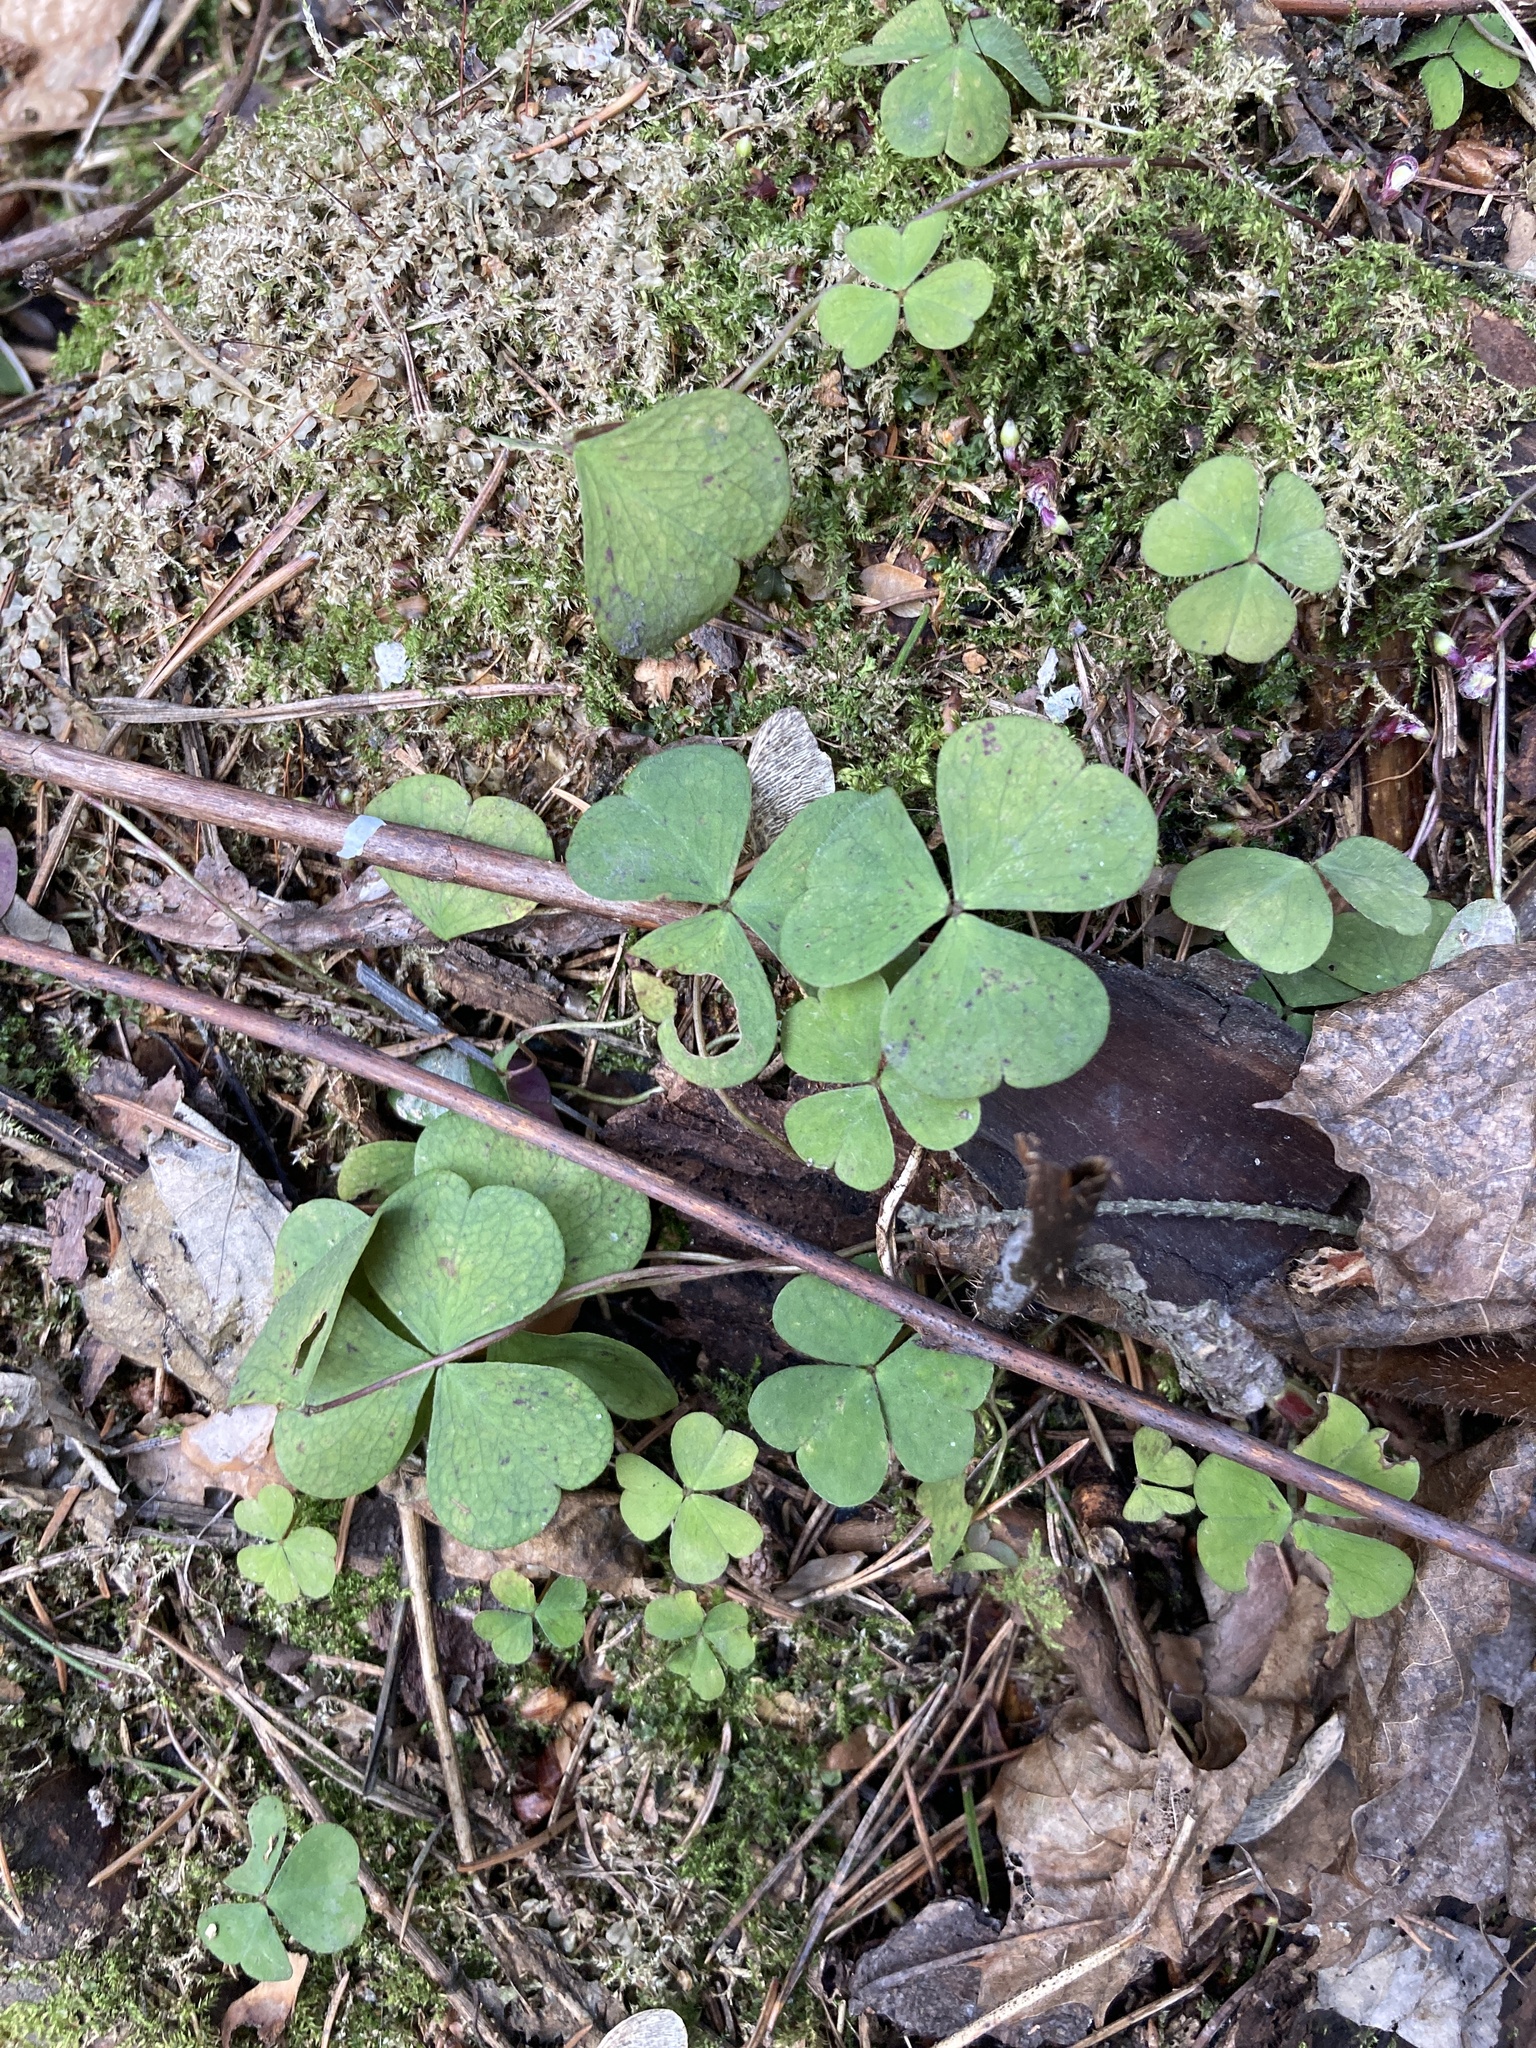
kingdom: Plantae
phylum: Tracheophyta
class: Magnoliopsida
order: Oxalidales
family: Oxalidaceae
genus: Oxalis
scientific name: Oxalis acetosella
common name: Wood-sorrel
